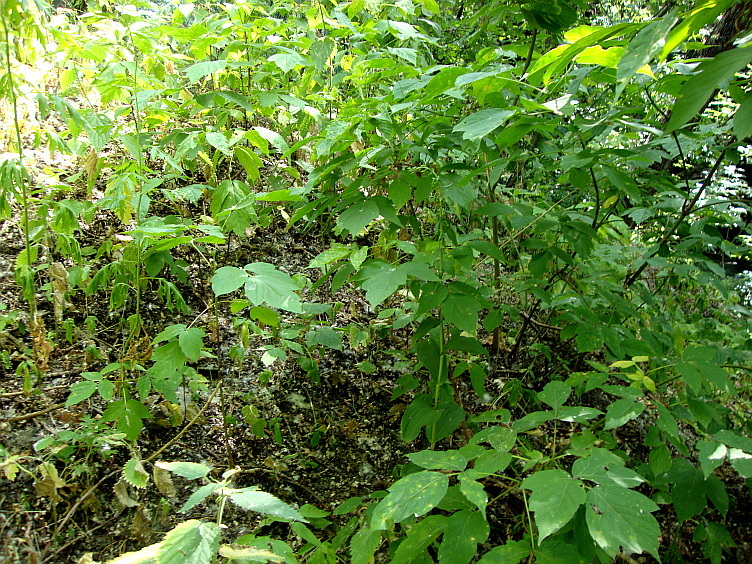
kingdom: Plantae
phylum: Tracheophyta
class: Magnoliopsida
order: Sapindales
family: Sapindaceae
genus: Acer
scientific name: Acer negundo
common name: Ashleaf maple
